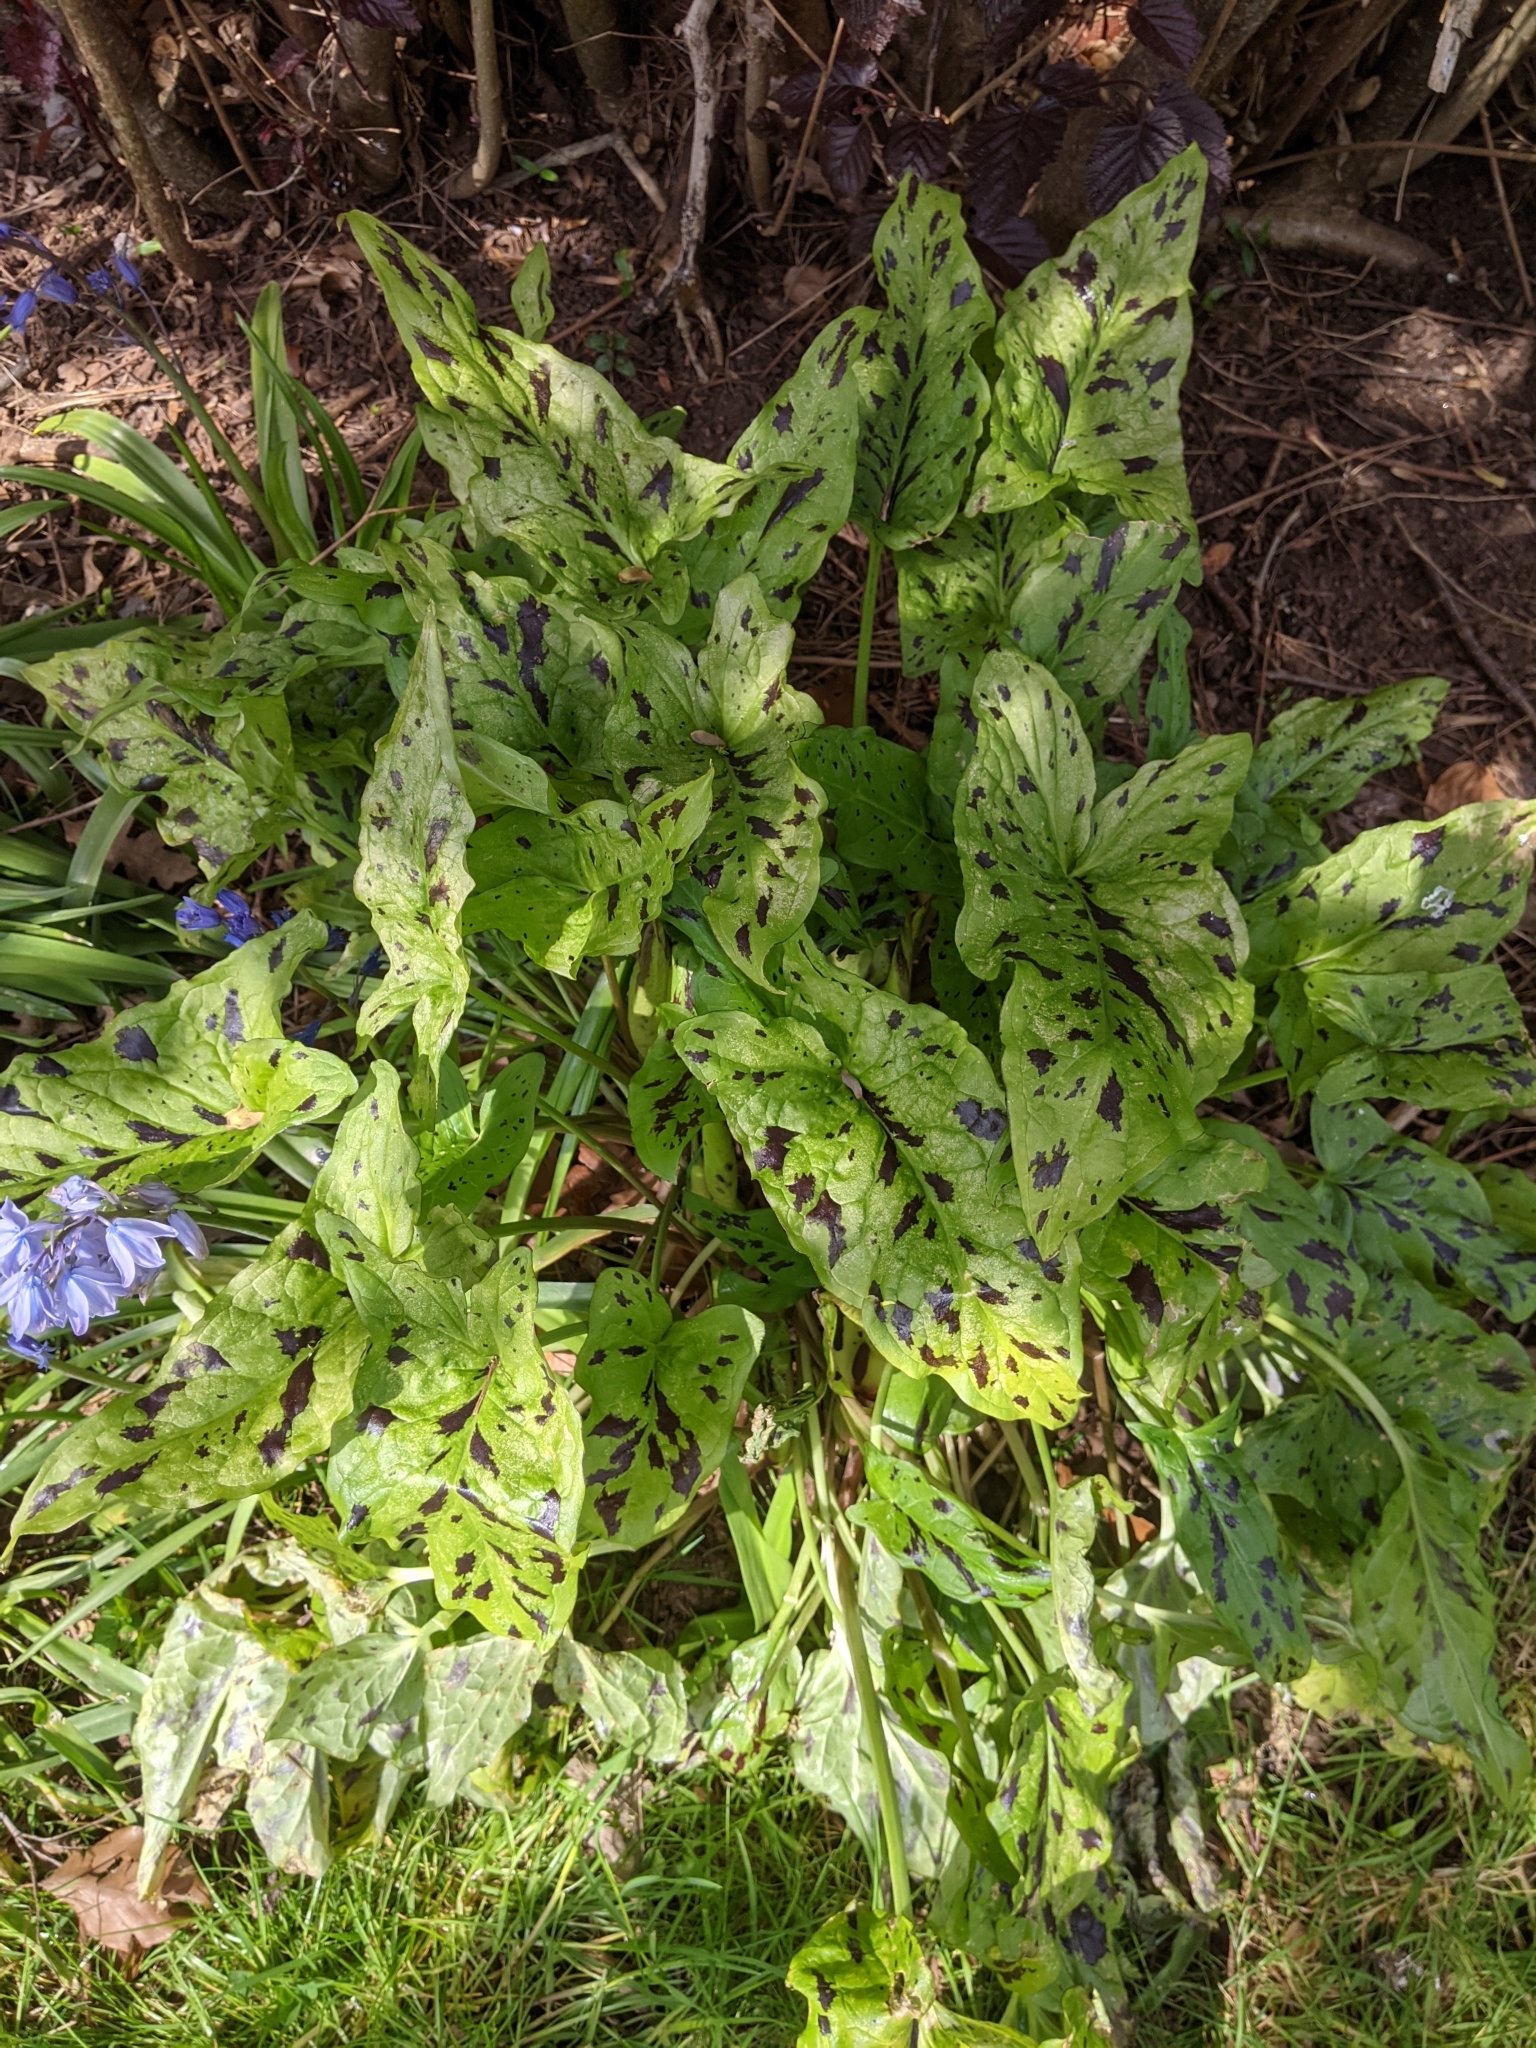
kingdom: Plantae
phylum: Tracheophyta
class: Liliopsida
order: Alismatales
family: Araceae
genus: Arum
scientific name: Arum maculatum
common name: Lords-and-ladies
